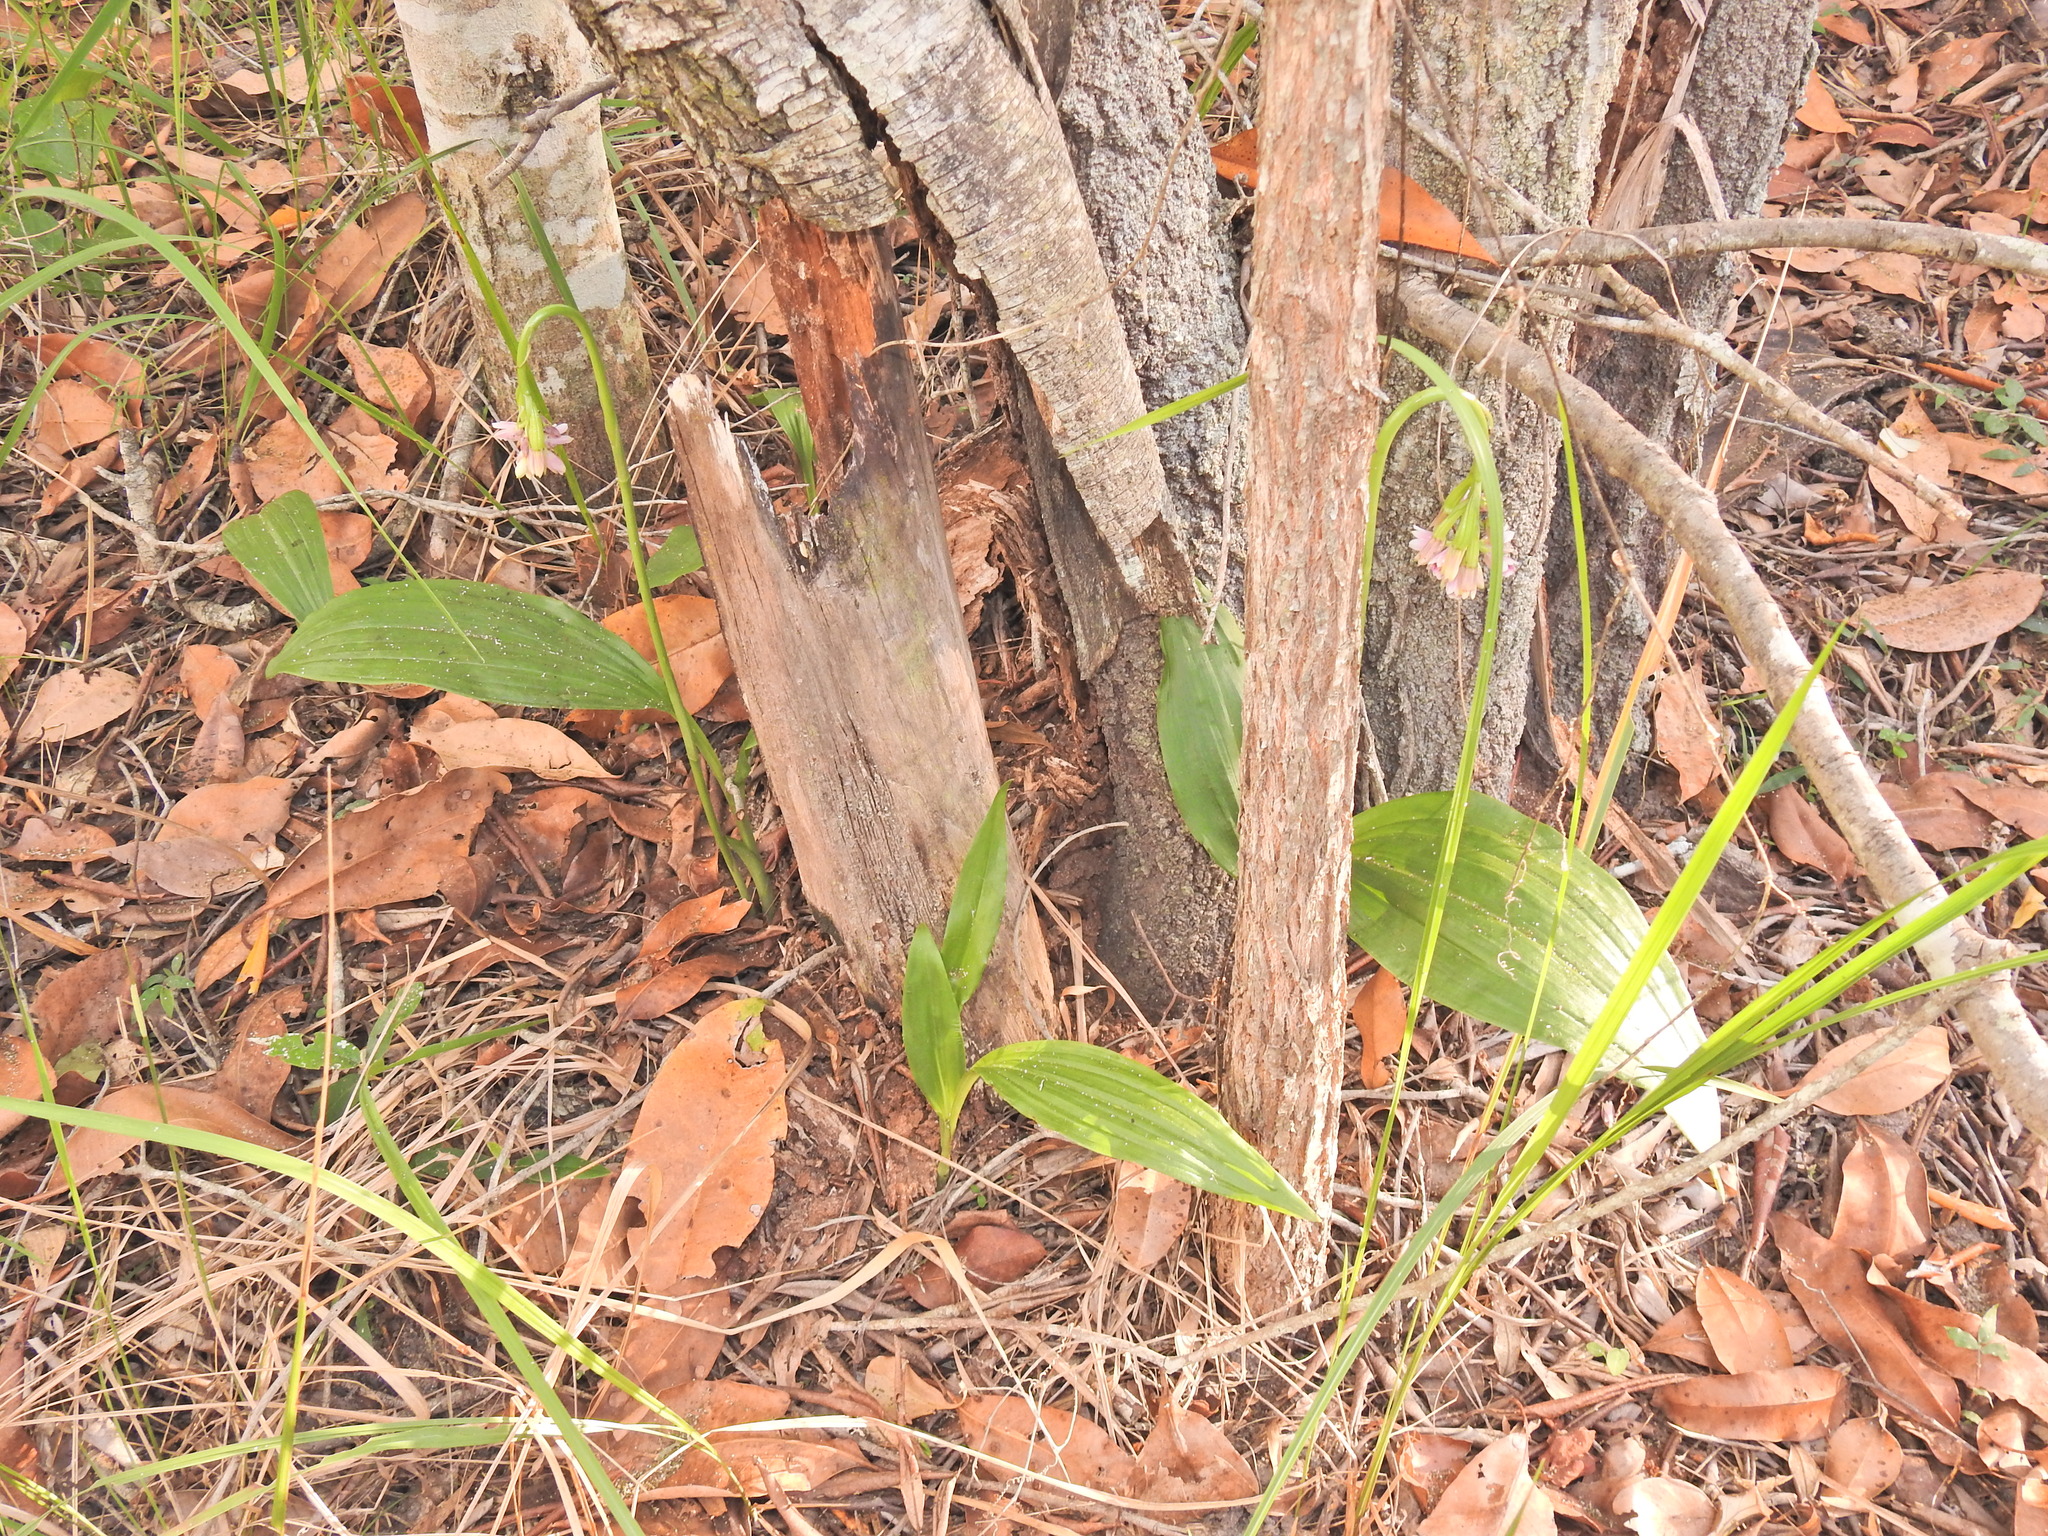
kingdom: Plantae
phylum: Tracheophyta
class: Liliopsida
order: Asparagales
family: Orchidaceae
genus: Eulophia
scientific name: Eulophia cernua
